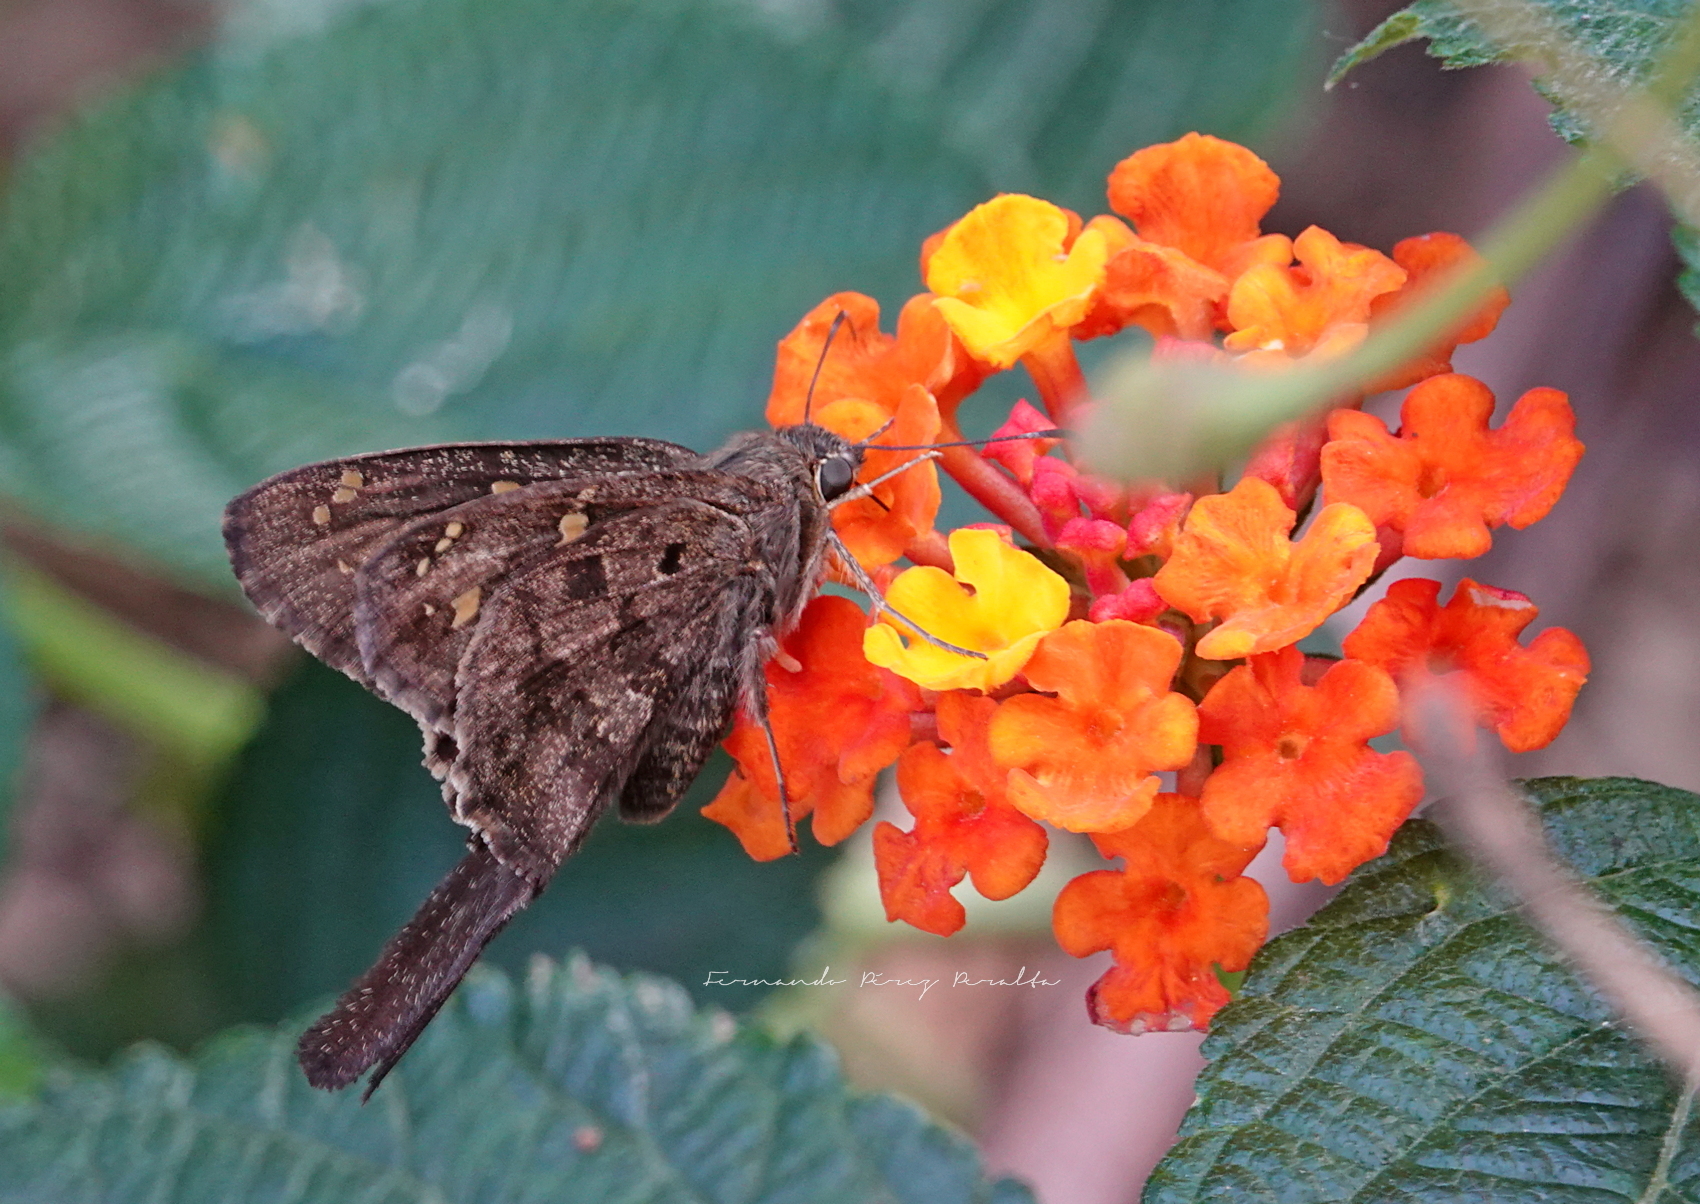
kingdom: Animalia
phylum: Arthropoda
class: Insecta
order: Lepidoptera
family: Hesperiidae
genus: Thorybes
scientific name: Thorybes
